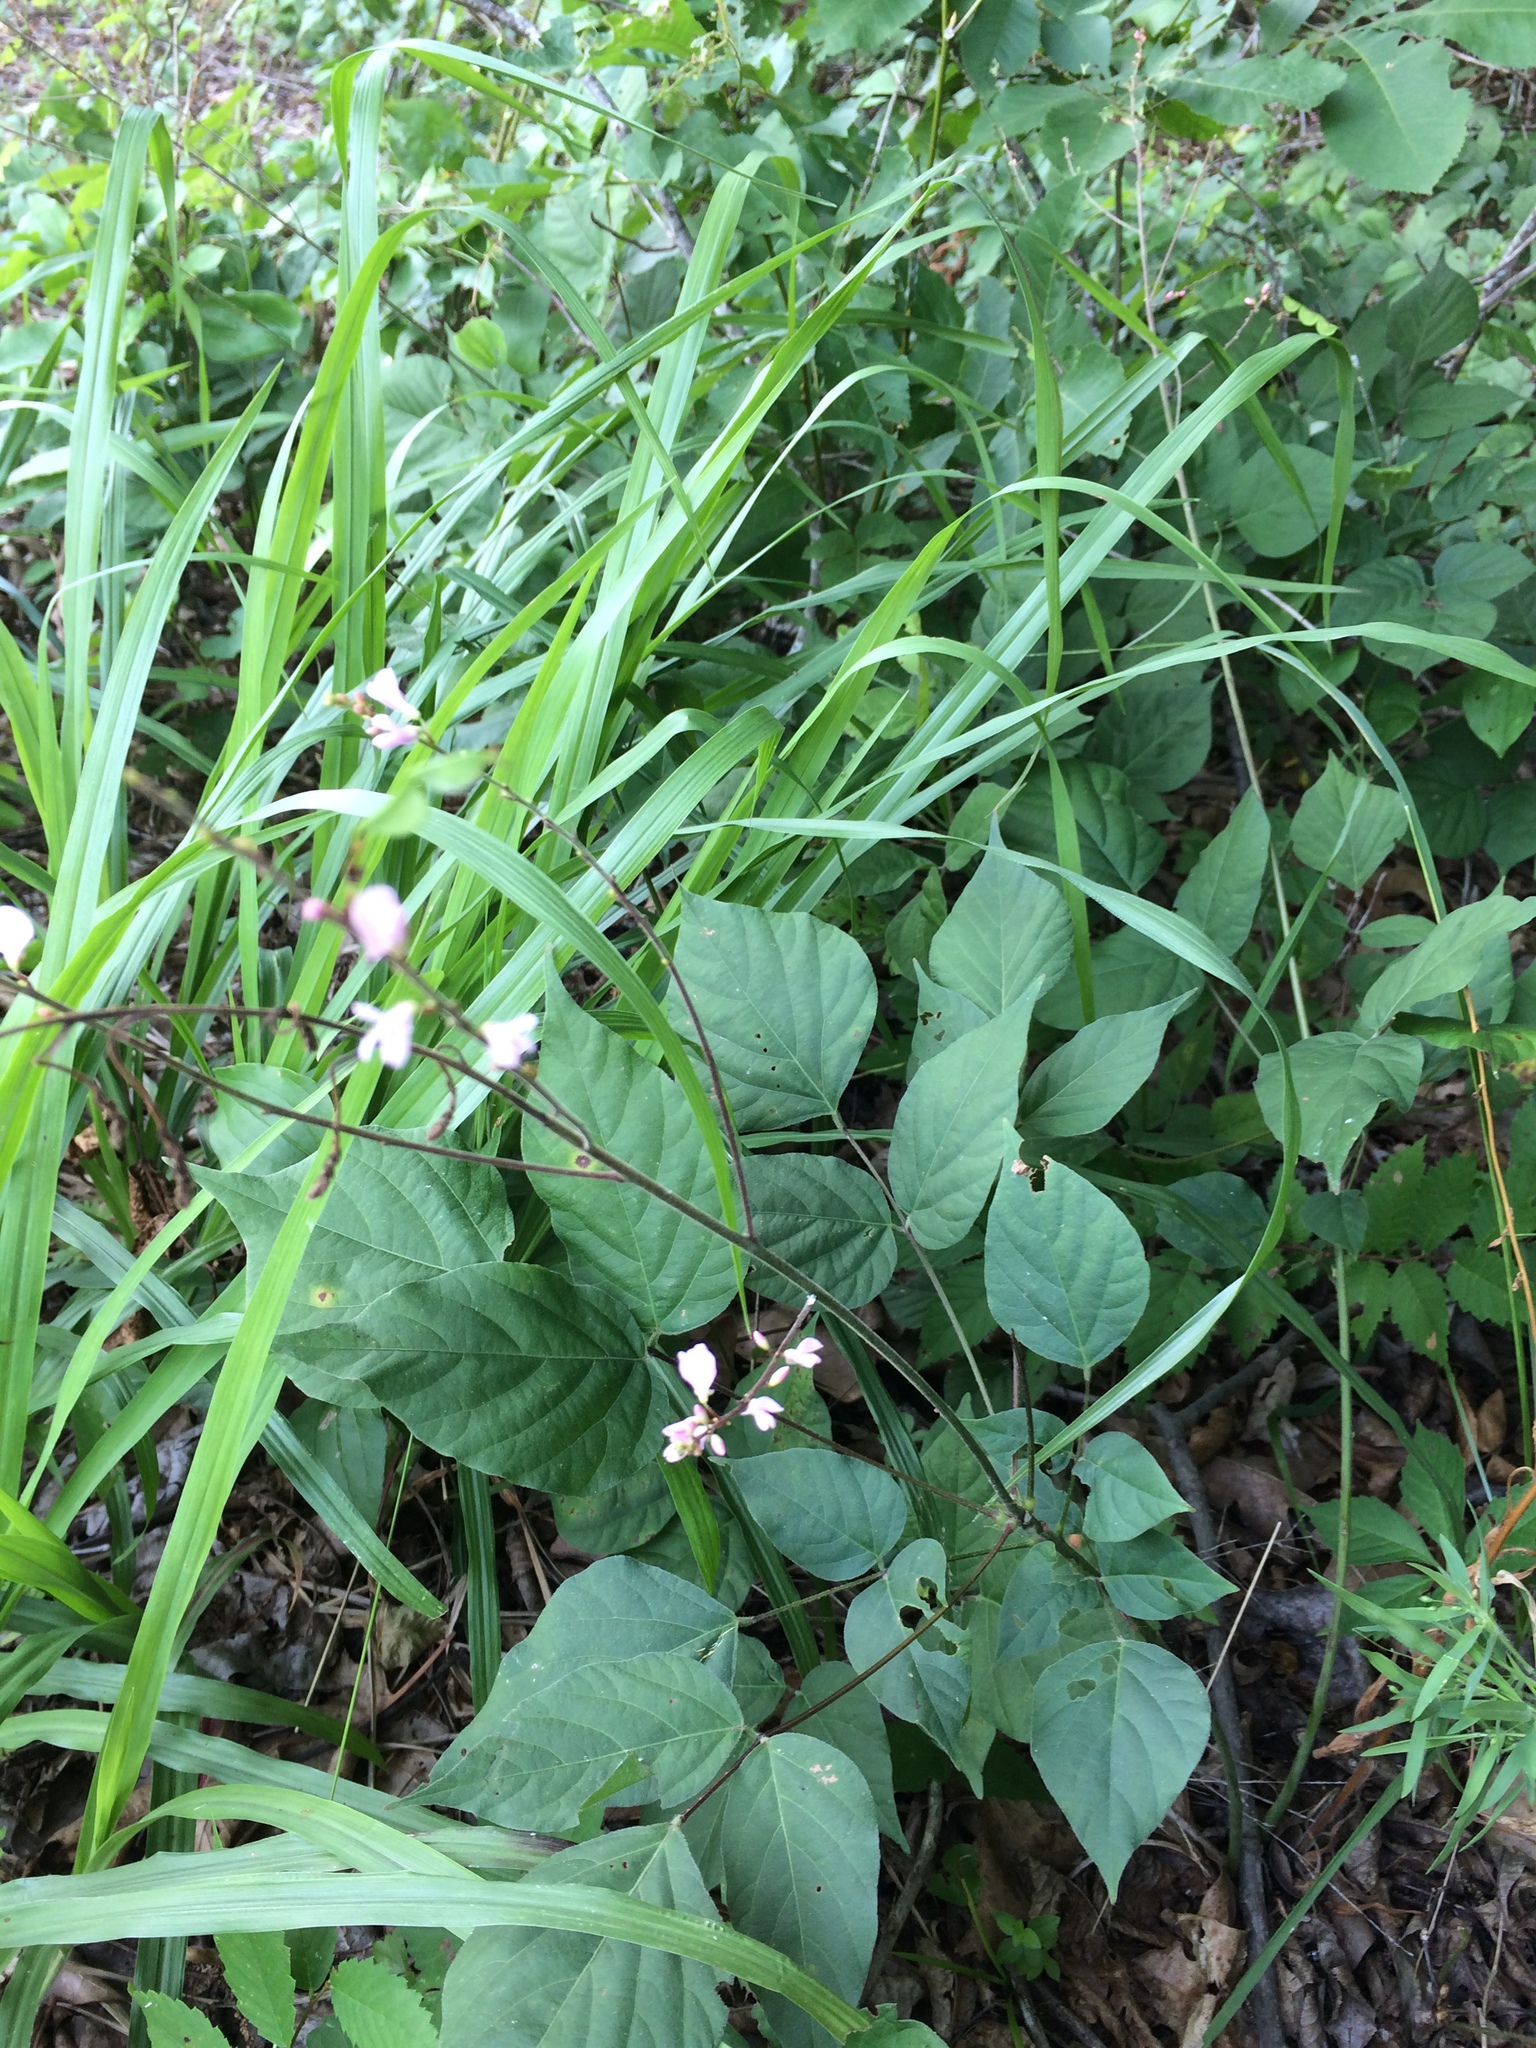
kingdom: Plantae
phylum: Tracheophyta
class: Magnoliopsida
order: Fabales
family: Fabaceae
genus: Hylodesmum
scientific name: Hylodesmum glutinosum
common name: Clustered-leaved tick-trefoil
